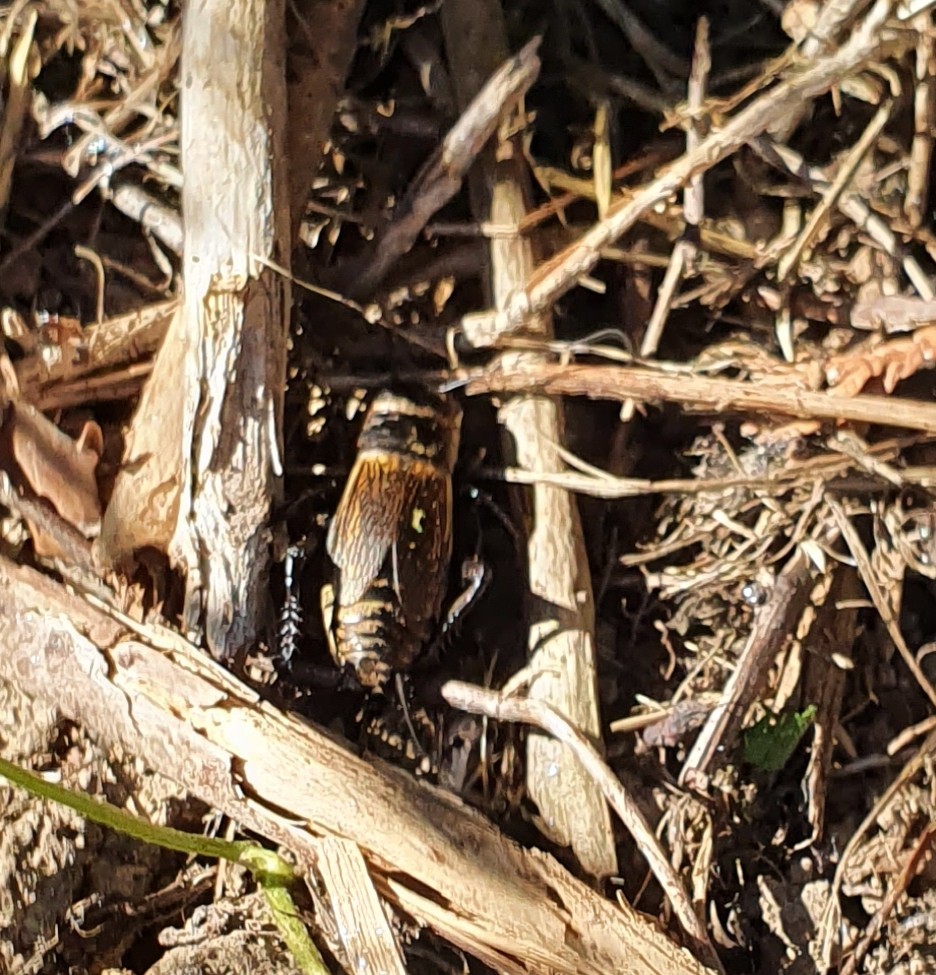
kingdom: Animalia
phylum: Arthropoda
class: Insecta
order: Orthoptera
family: Gryllidae
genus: Gryllus
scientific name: Gryllus campestris
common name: Field cricket
